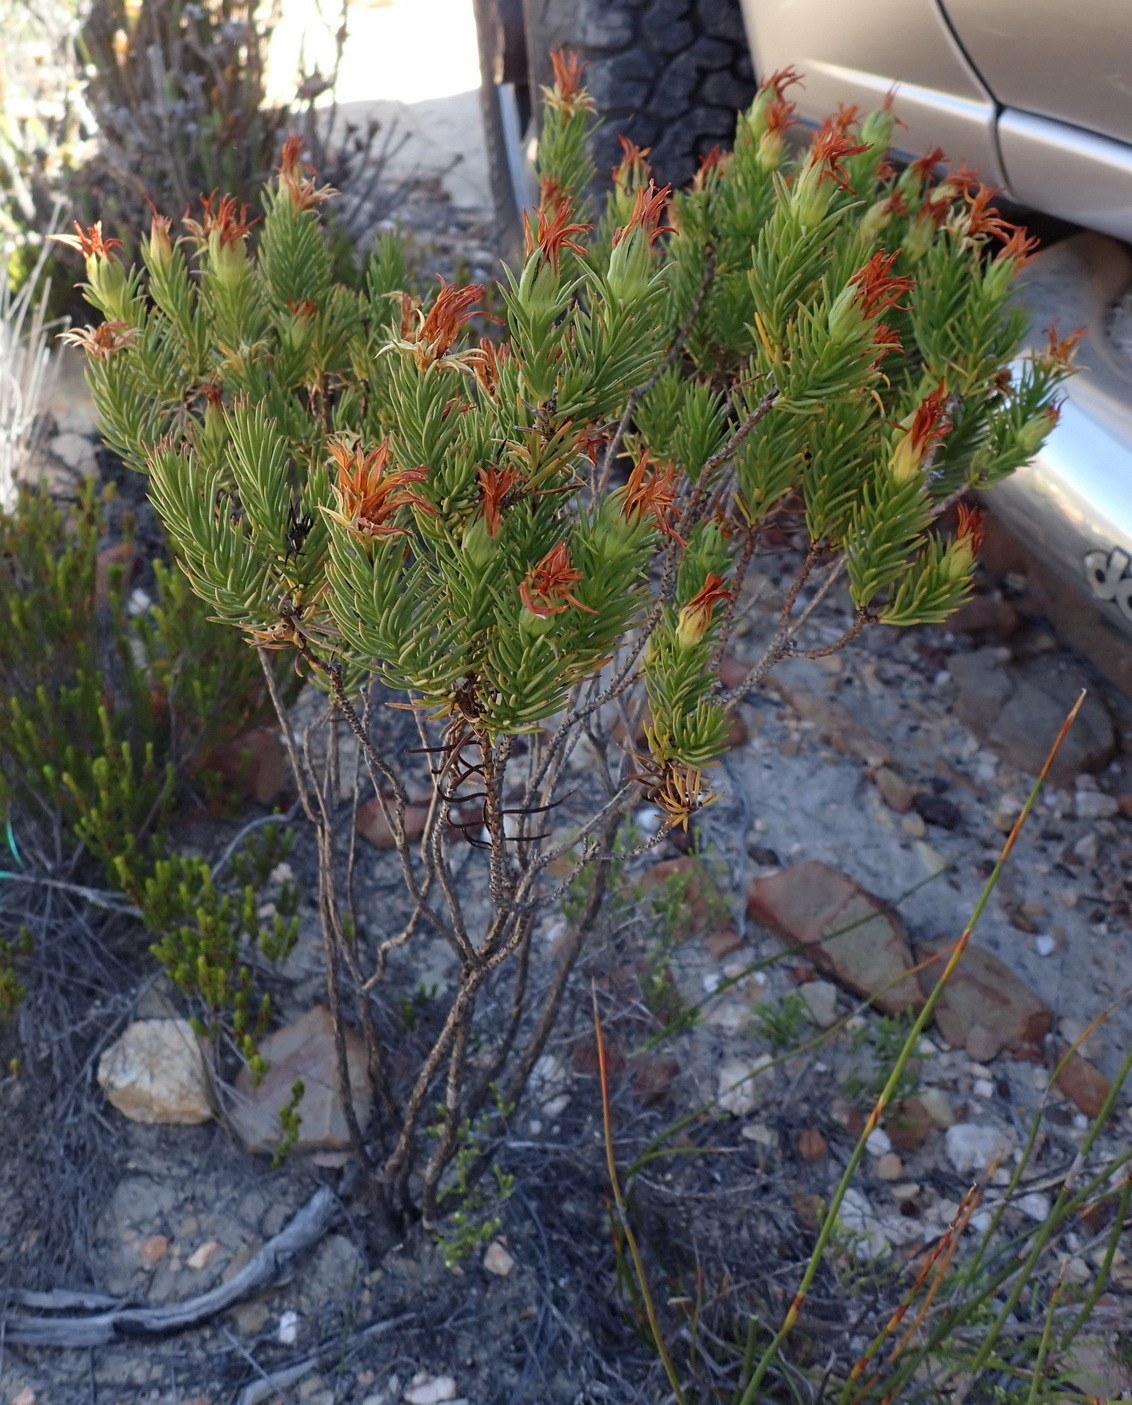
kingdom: Plantae
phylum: Tracheophyta
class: Magnoliopsida
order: Asterales
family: Asteraceae
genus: Gibbaria
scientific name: Gibbaria glabra
